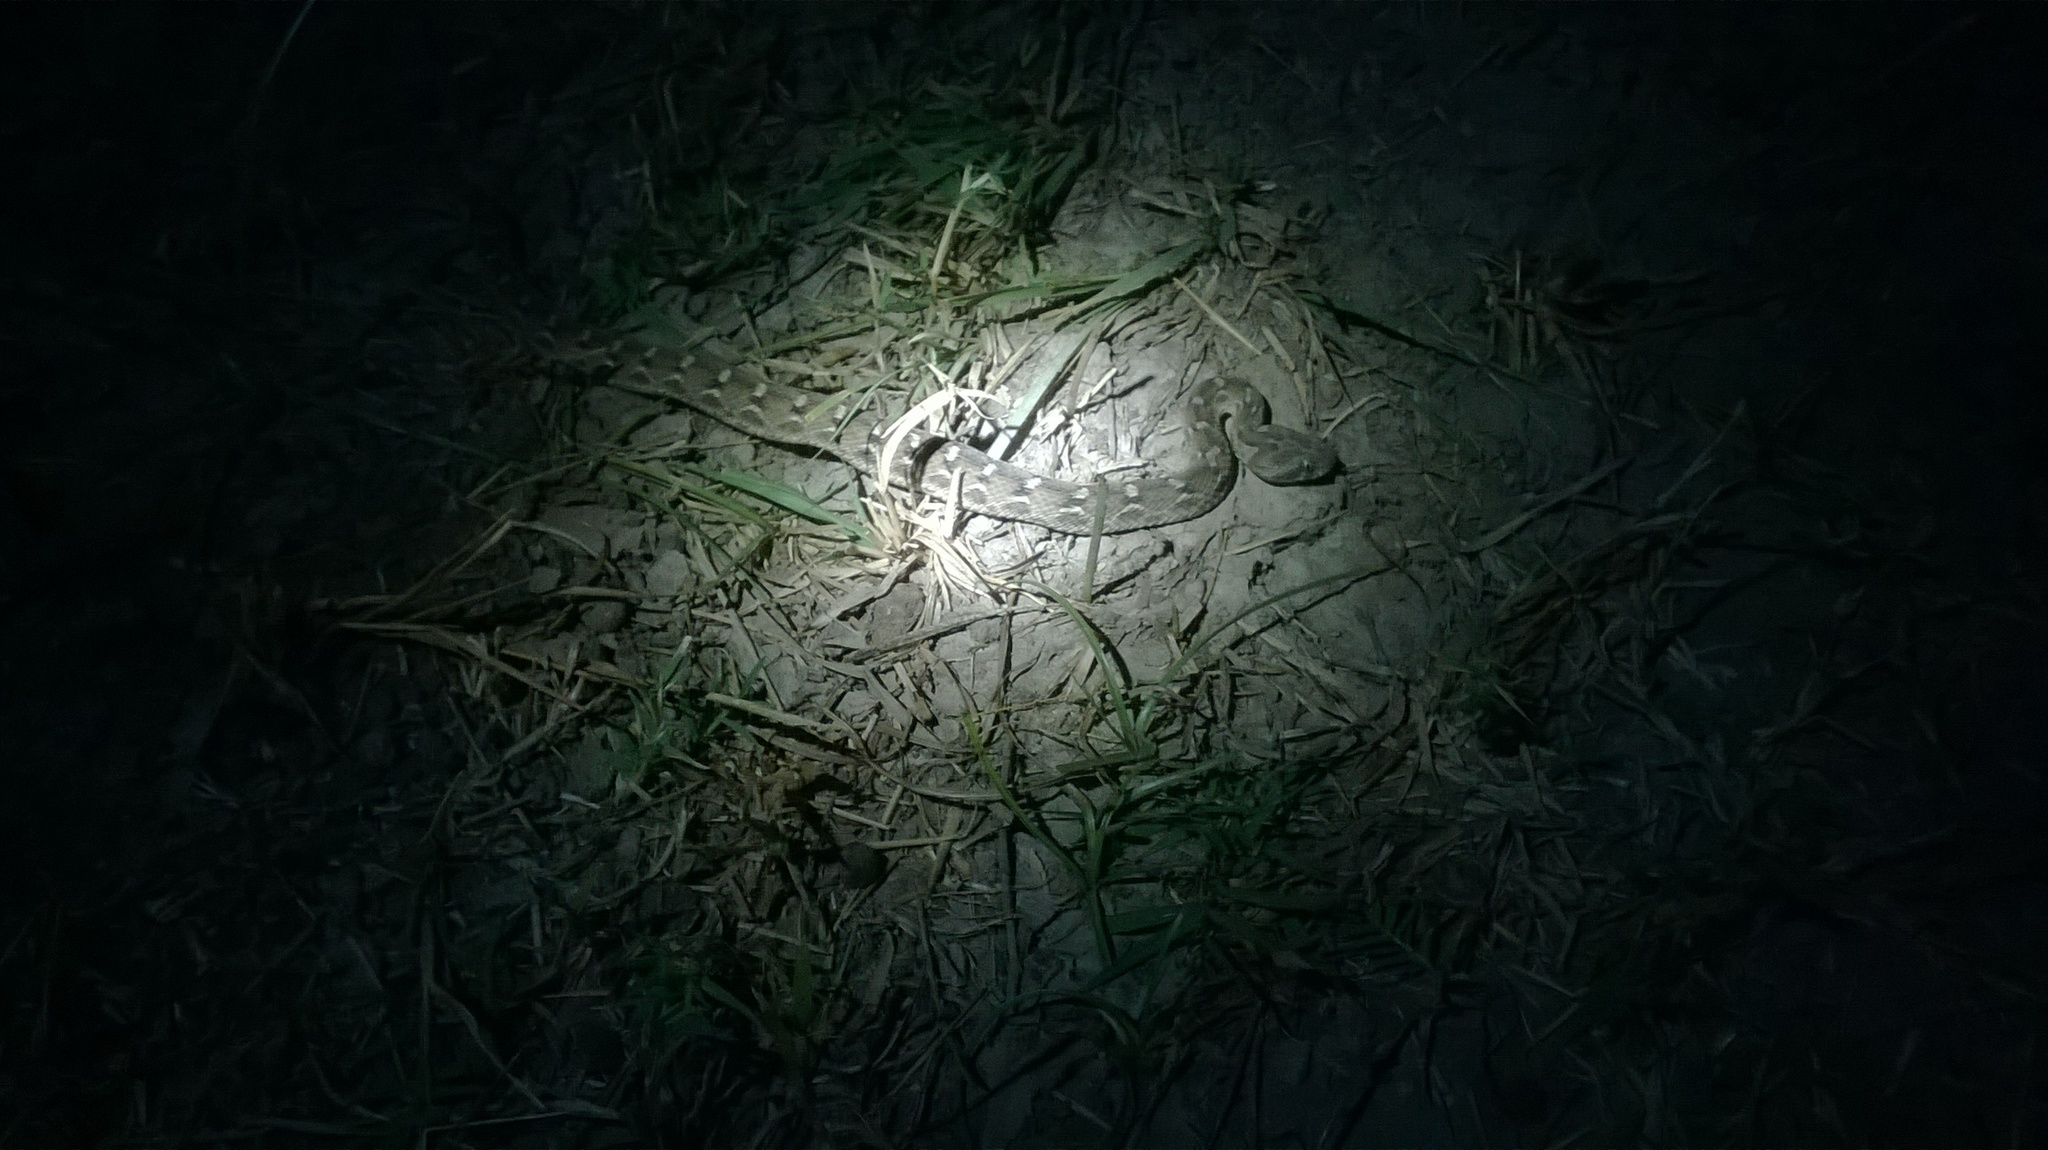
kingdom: Animalia
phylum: Chordata
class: Squamata
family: Viperidae
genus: Echis
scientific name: Echis carinatus
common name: Saw-scaled viper
